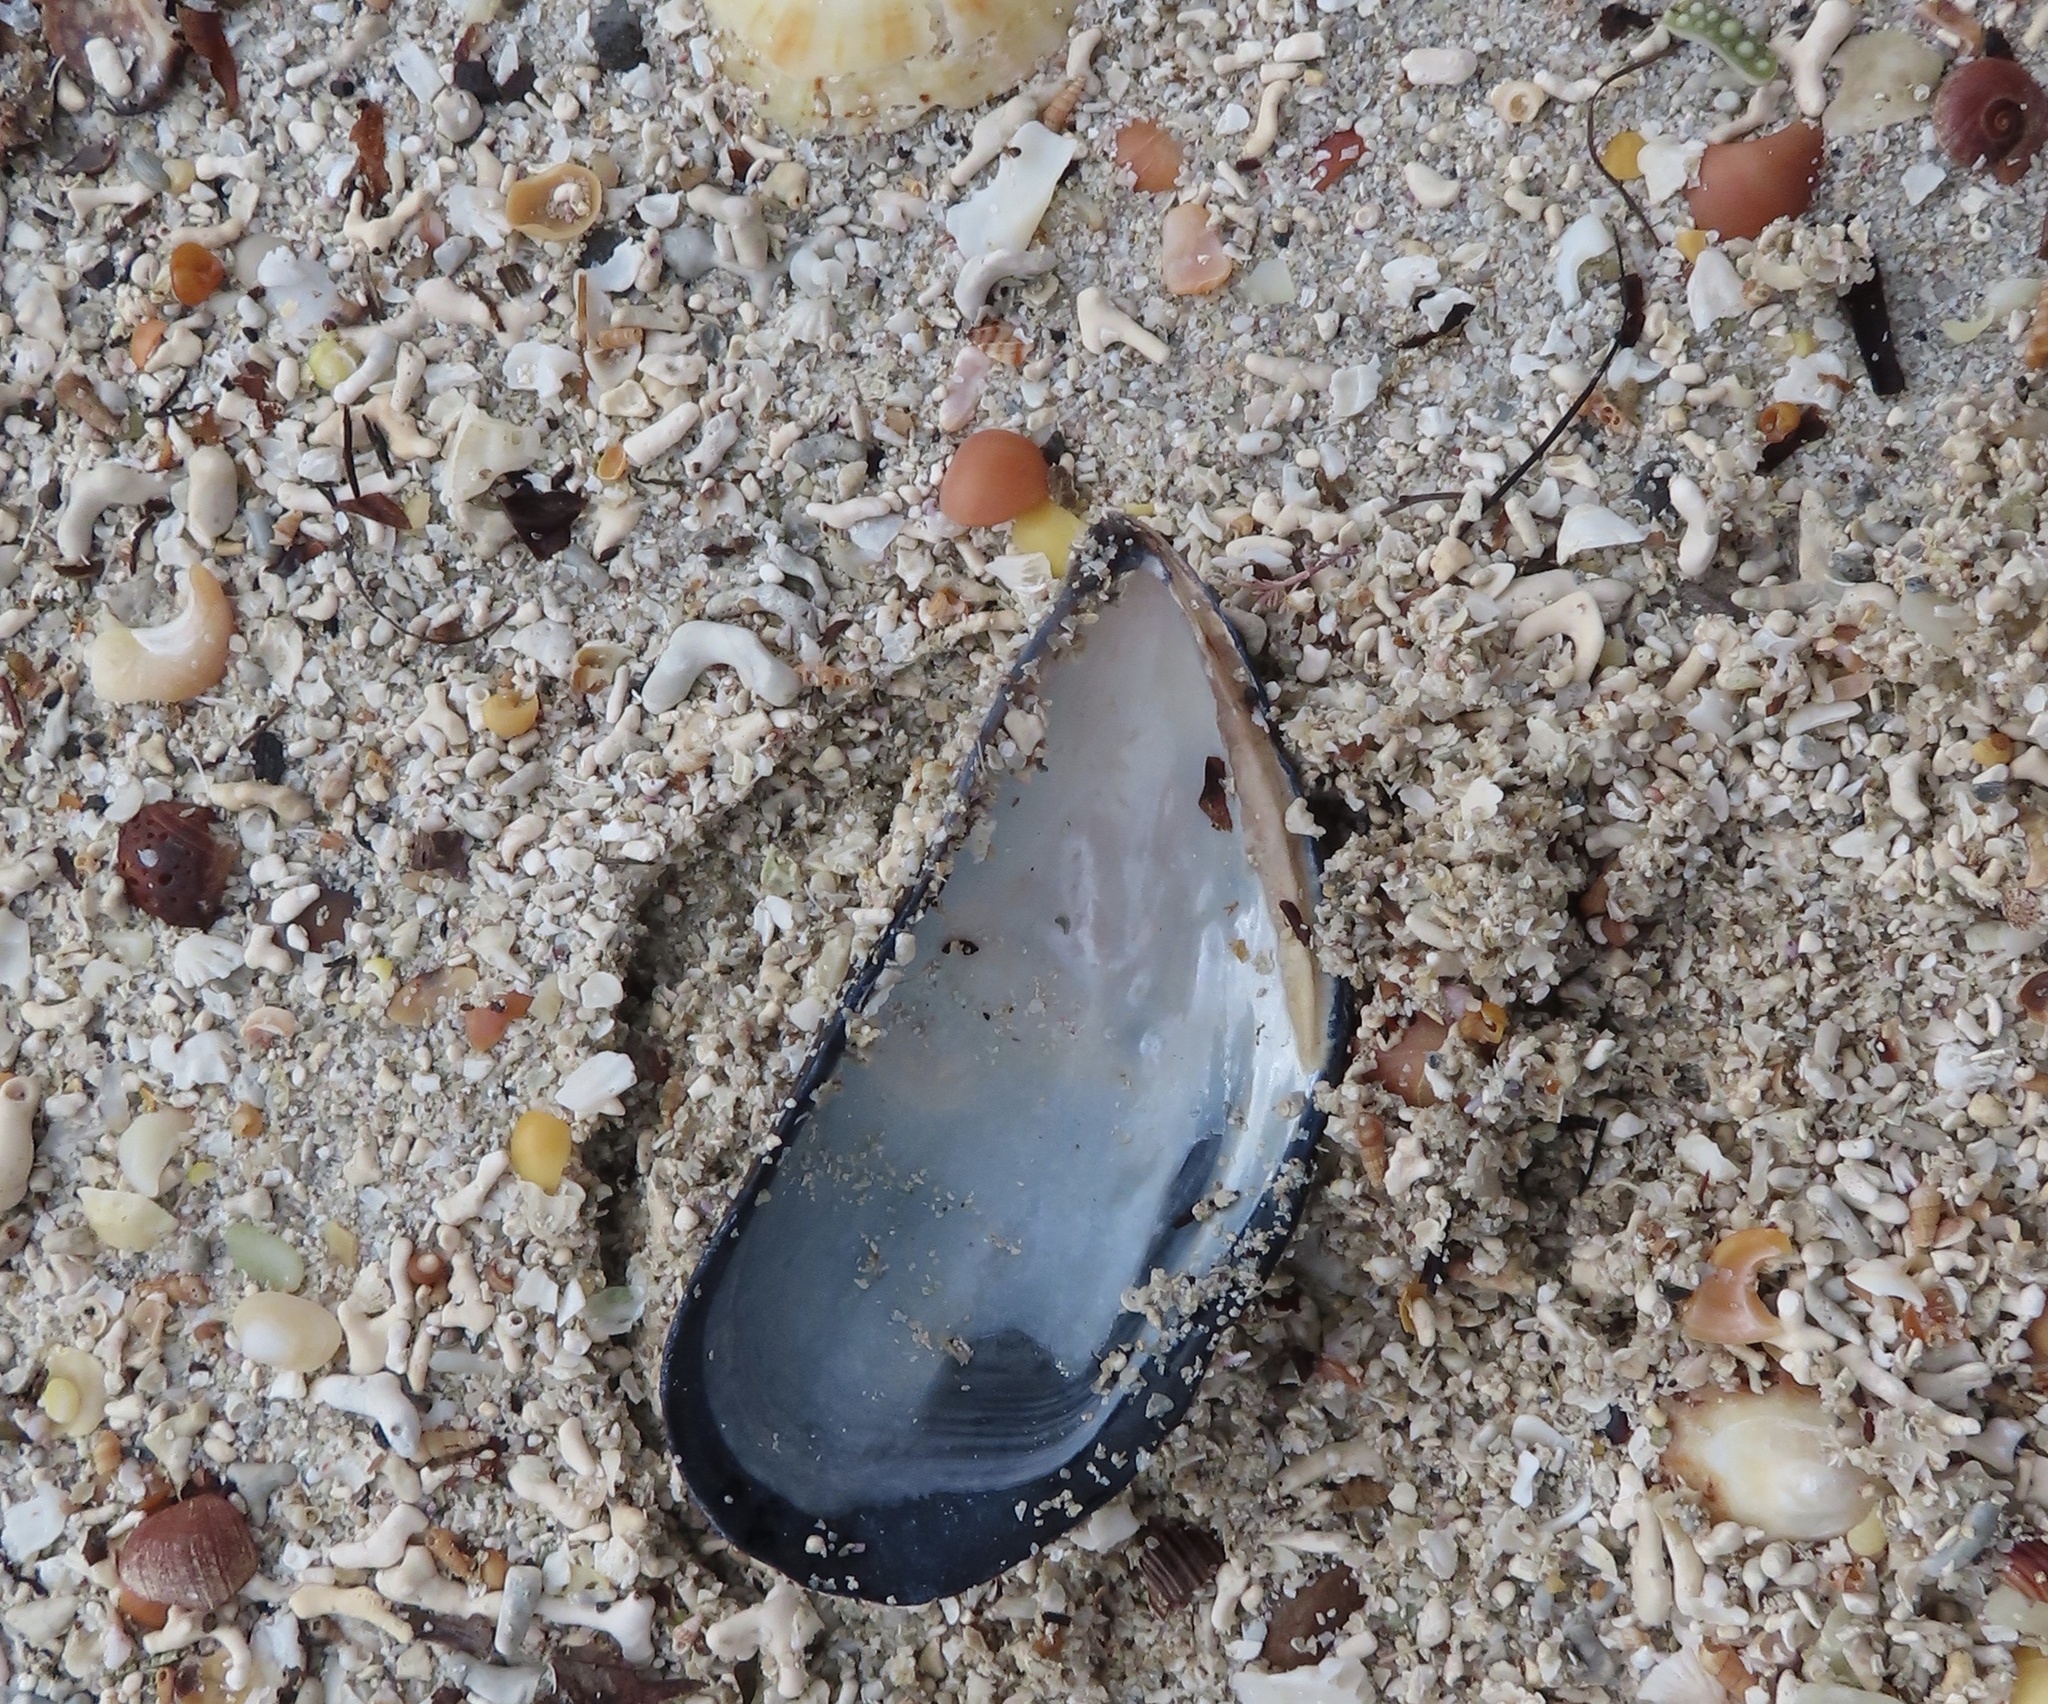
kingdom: Animalia
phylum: Mollusca
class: Bivalvia
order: Mytilida
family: Mytilidae
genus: Mytilus
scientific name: Mytilus edulis
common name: Blue mussel
